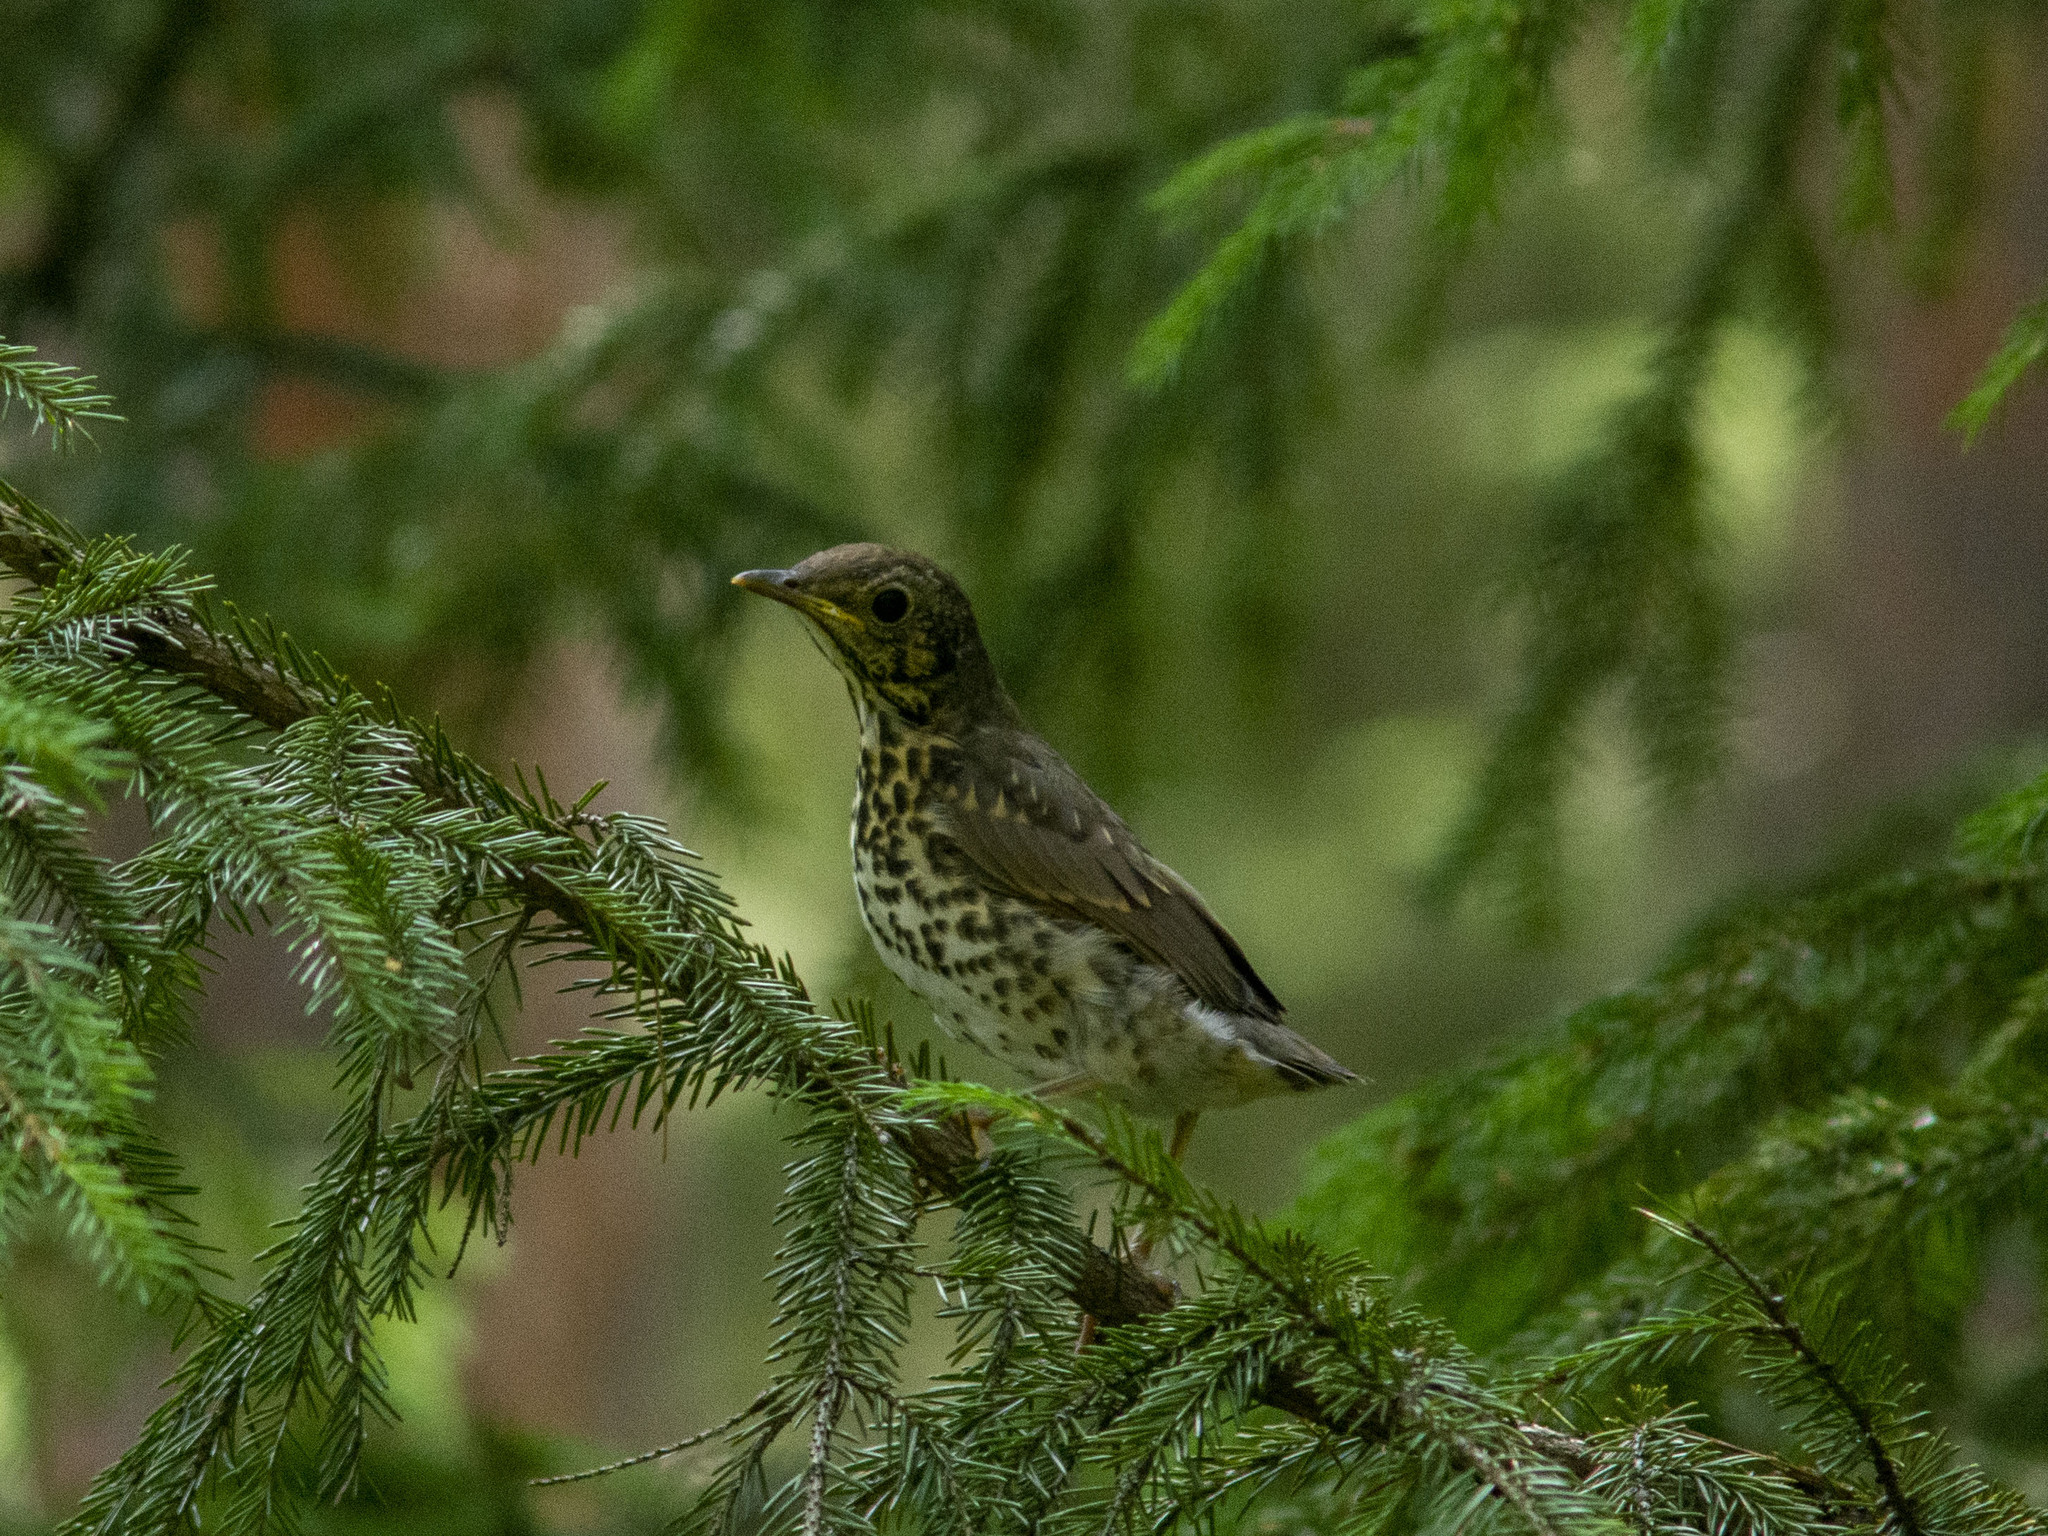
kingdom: Animalia
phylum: Chordata
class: Aves
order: Passeriformes
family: Turdidae
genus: Turdus
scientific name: Turdus philomelos
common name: Song thrush
